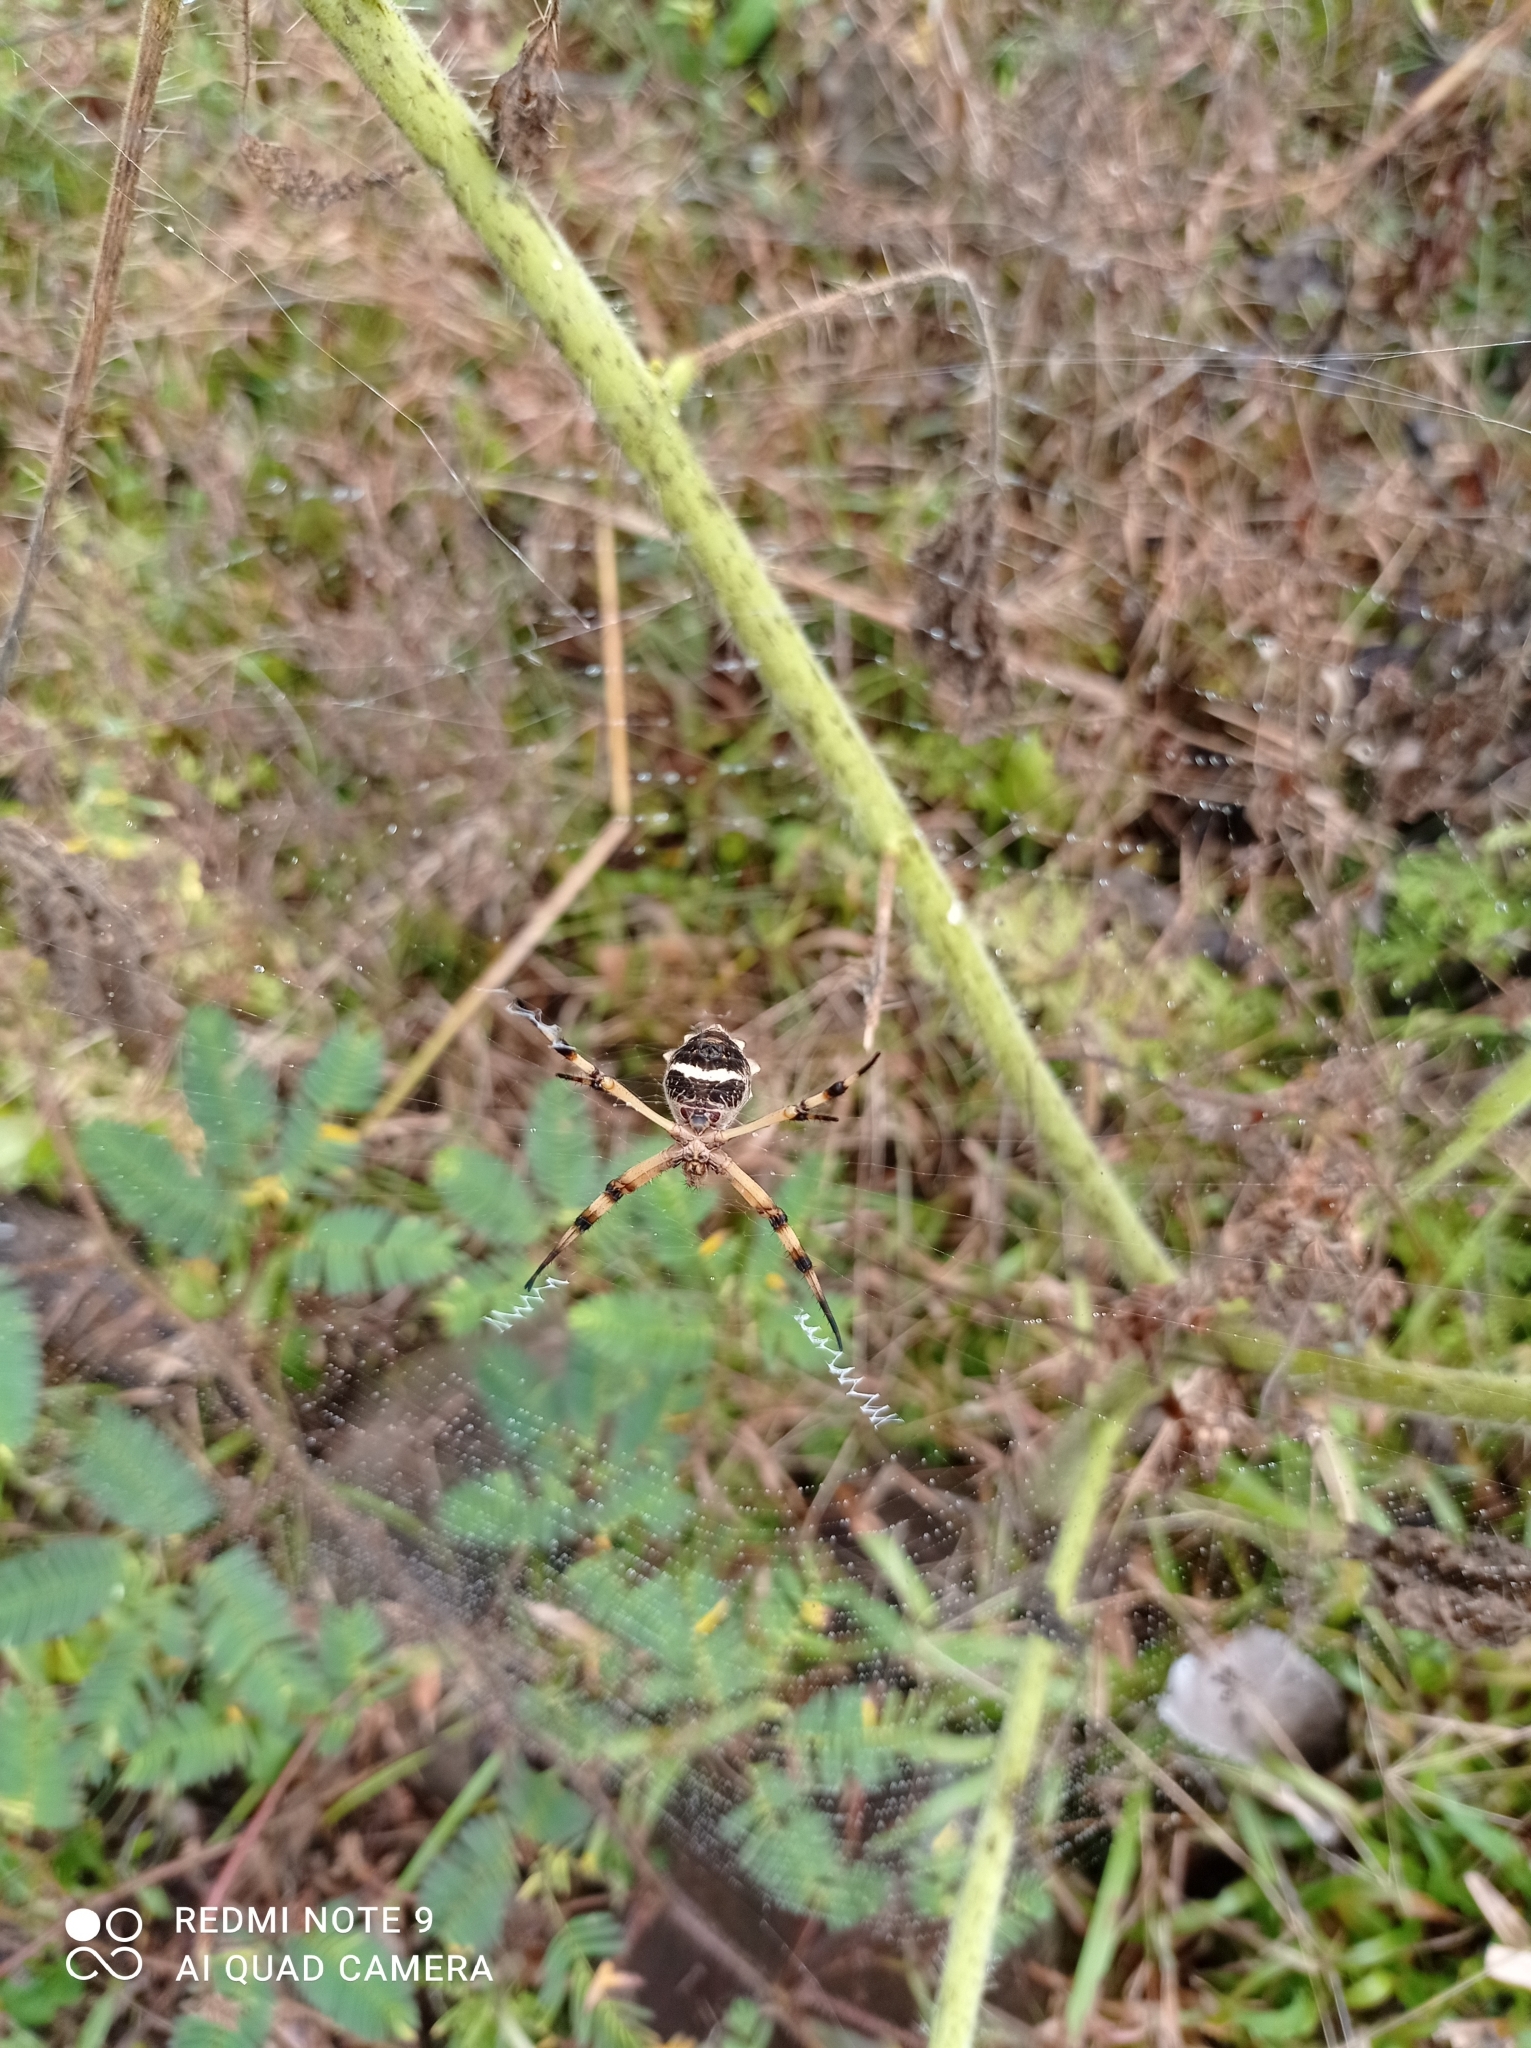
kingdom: Animalia
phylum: Arthropoda
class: Arachnida
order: Araneae
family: Araneidae
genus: Argiope
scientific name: Argiope argentata
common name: Orb weavers
